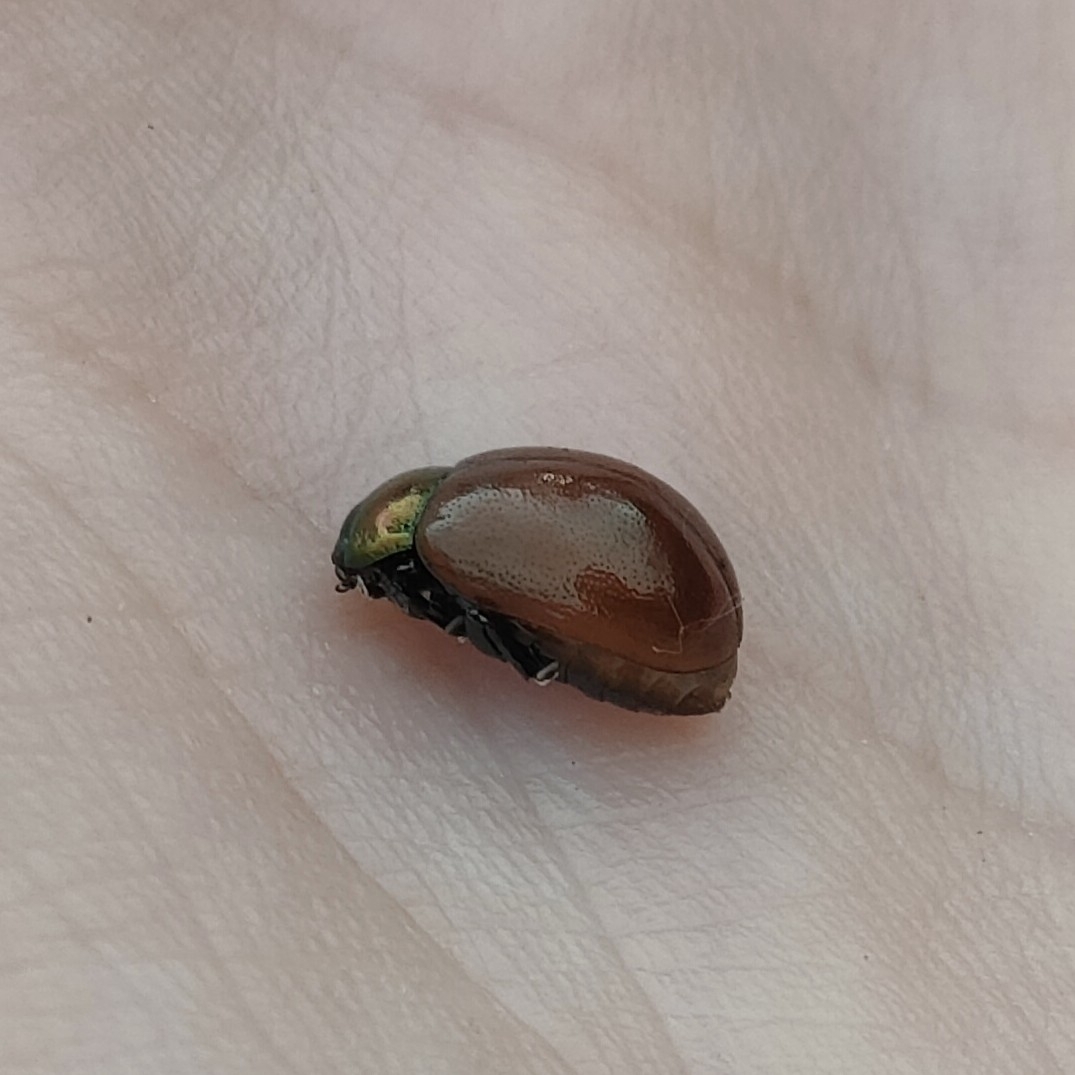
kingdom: Animalia
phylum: Arthropoda
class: Insecta
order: Coleoptera
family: Chrysomelidae
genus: Chrysomela
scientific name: Chrysomela polita
